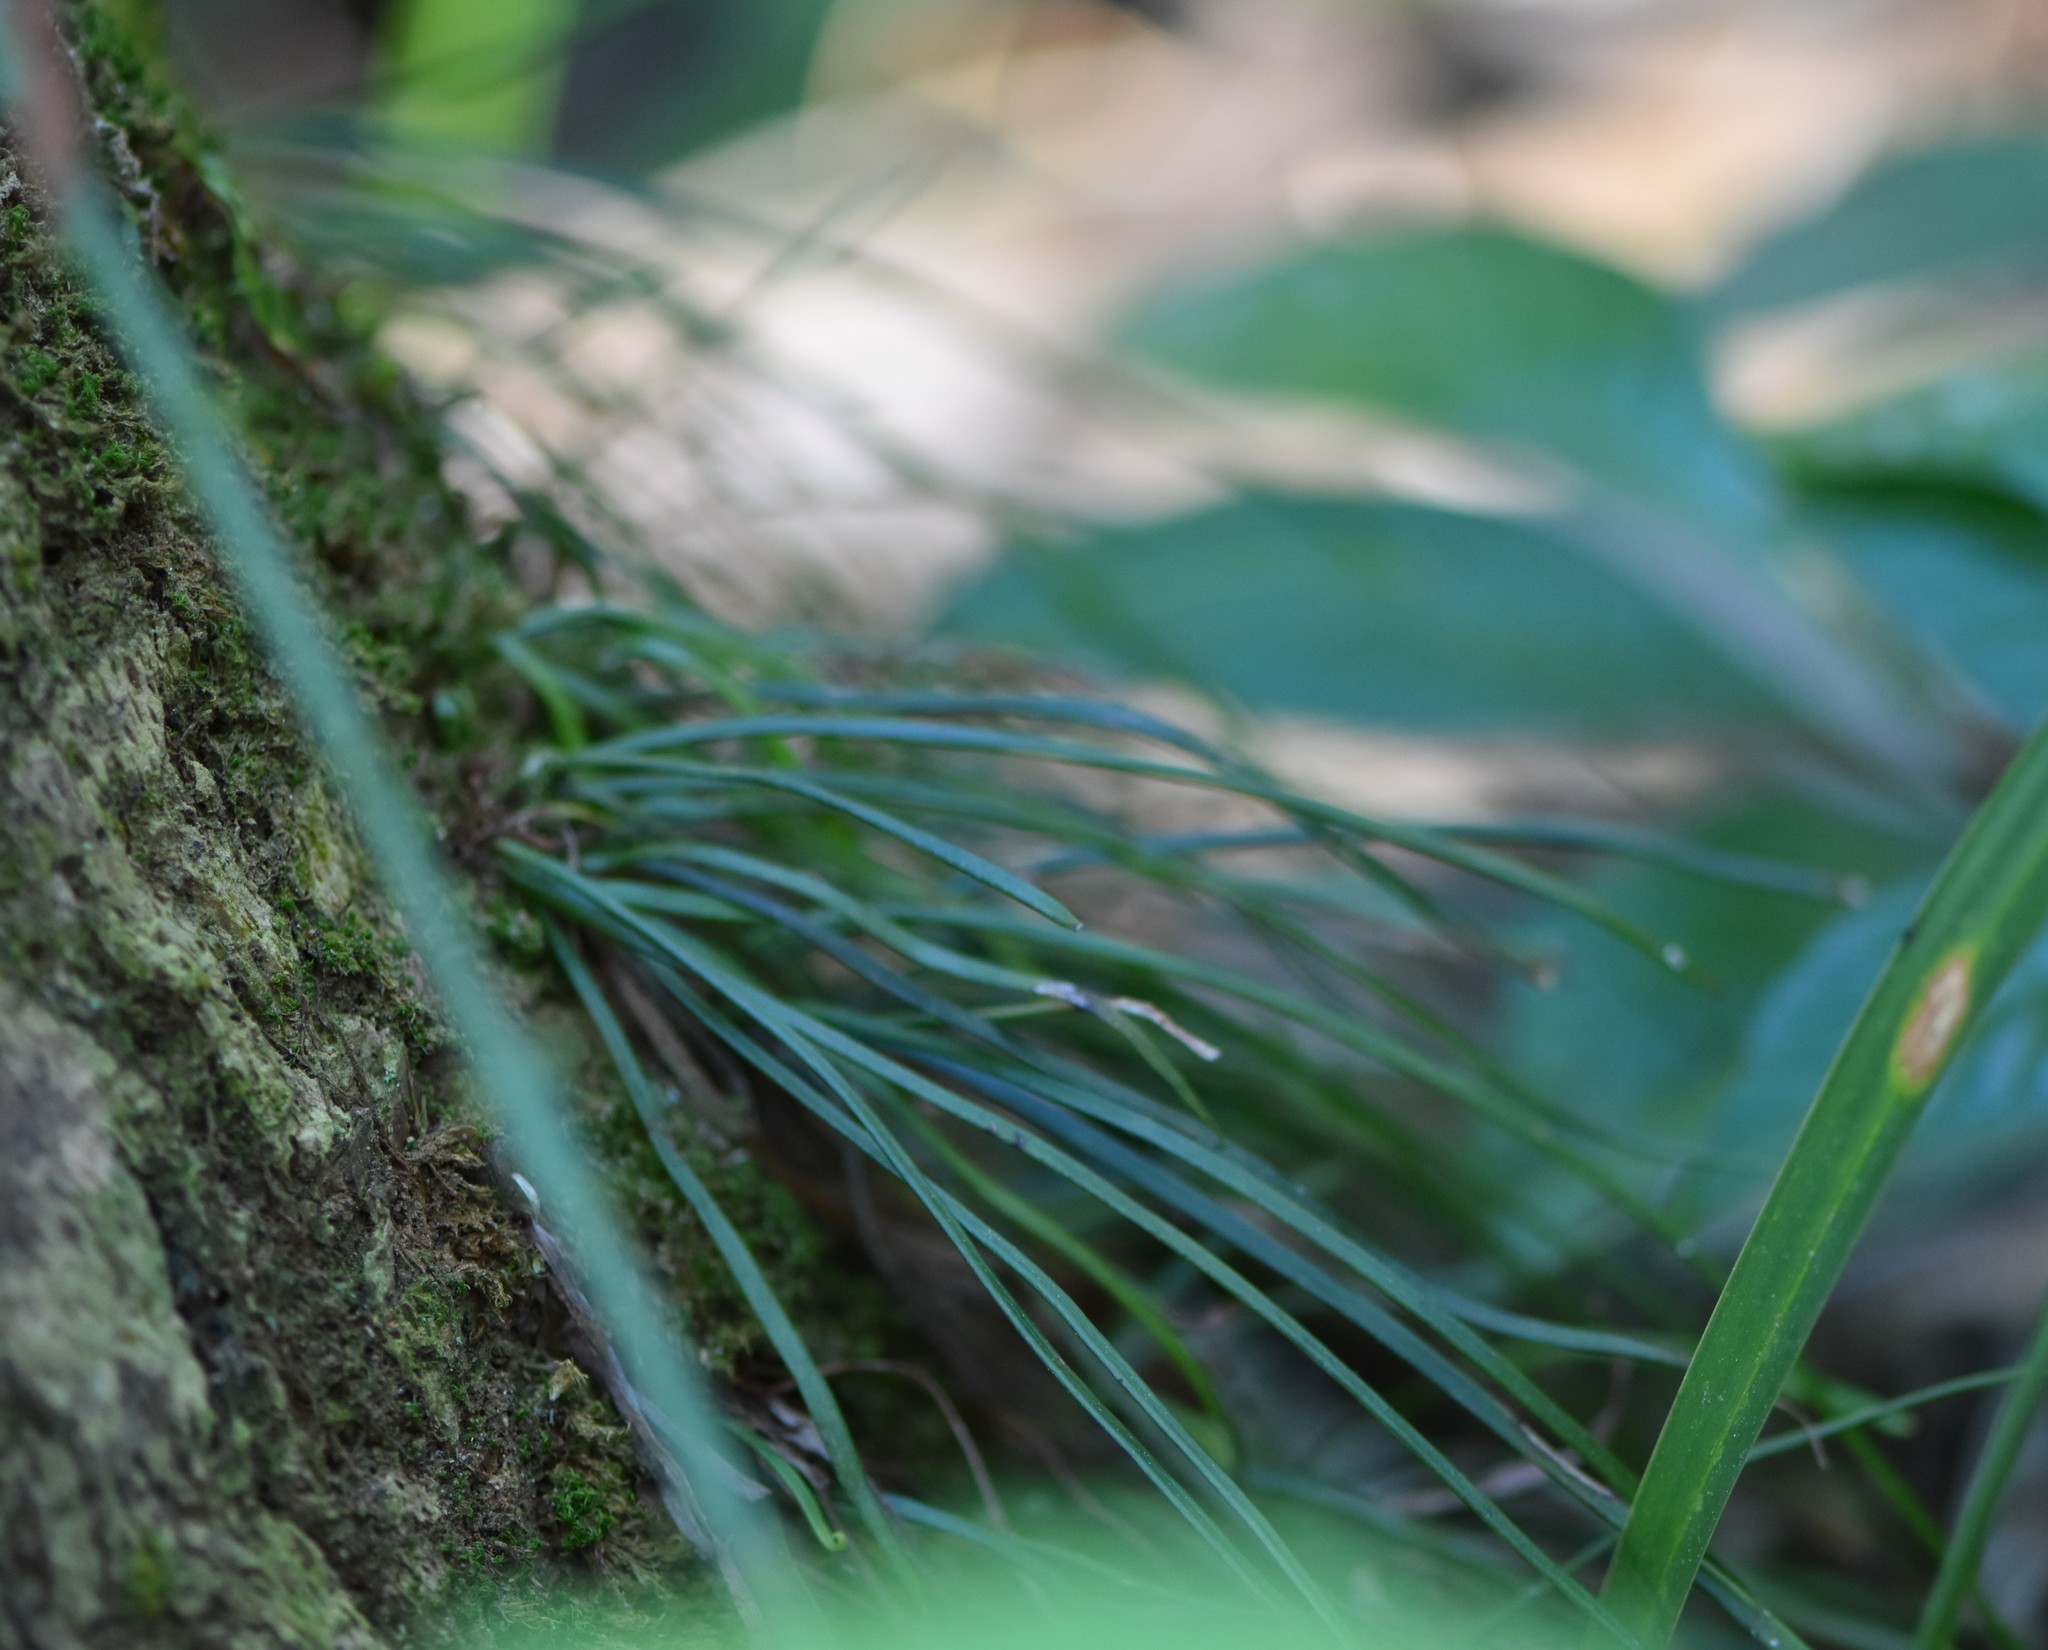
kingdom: Plantae
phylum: Tracheophyta
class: Polypodiopsida
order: Polypodiales
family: Pteridaceae
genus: Vittaria
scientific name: Vittaria lineata
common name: Shoestring fern
